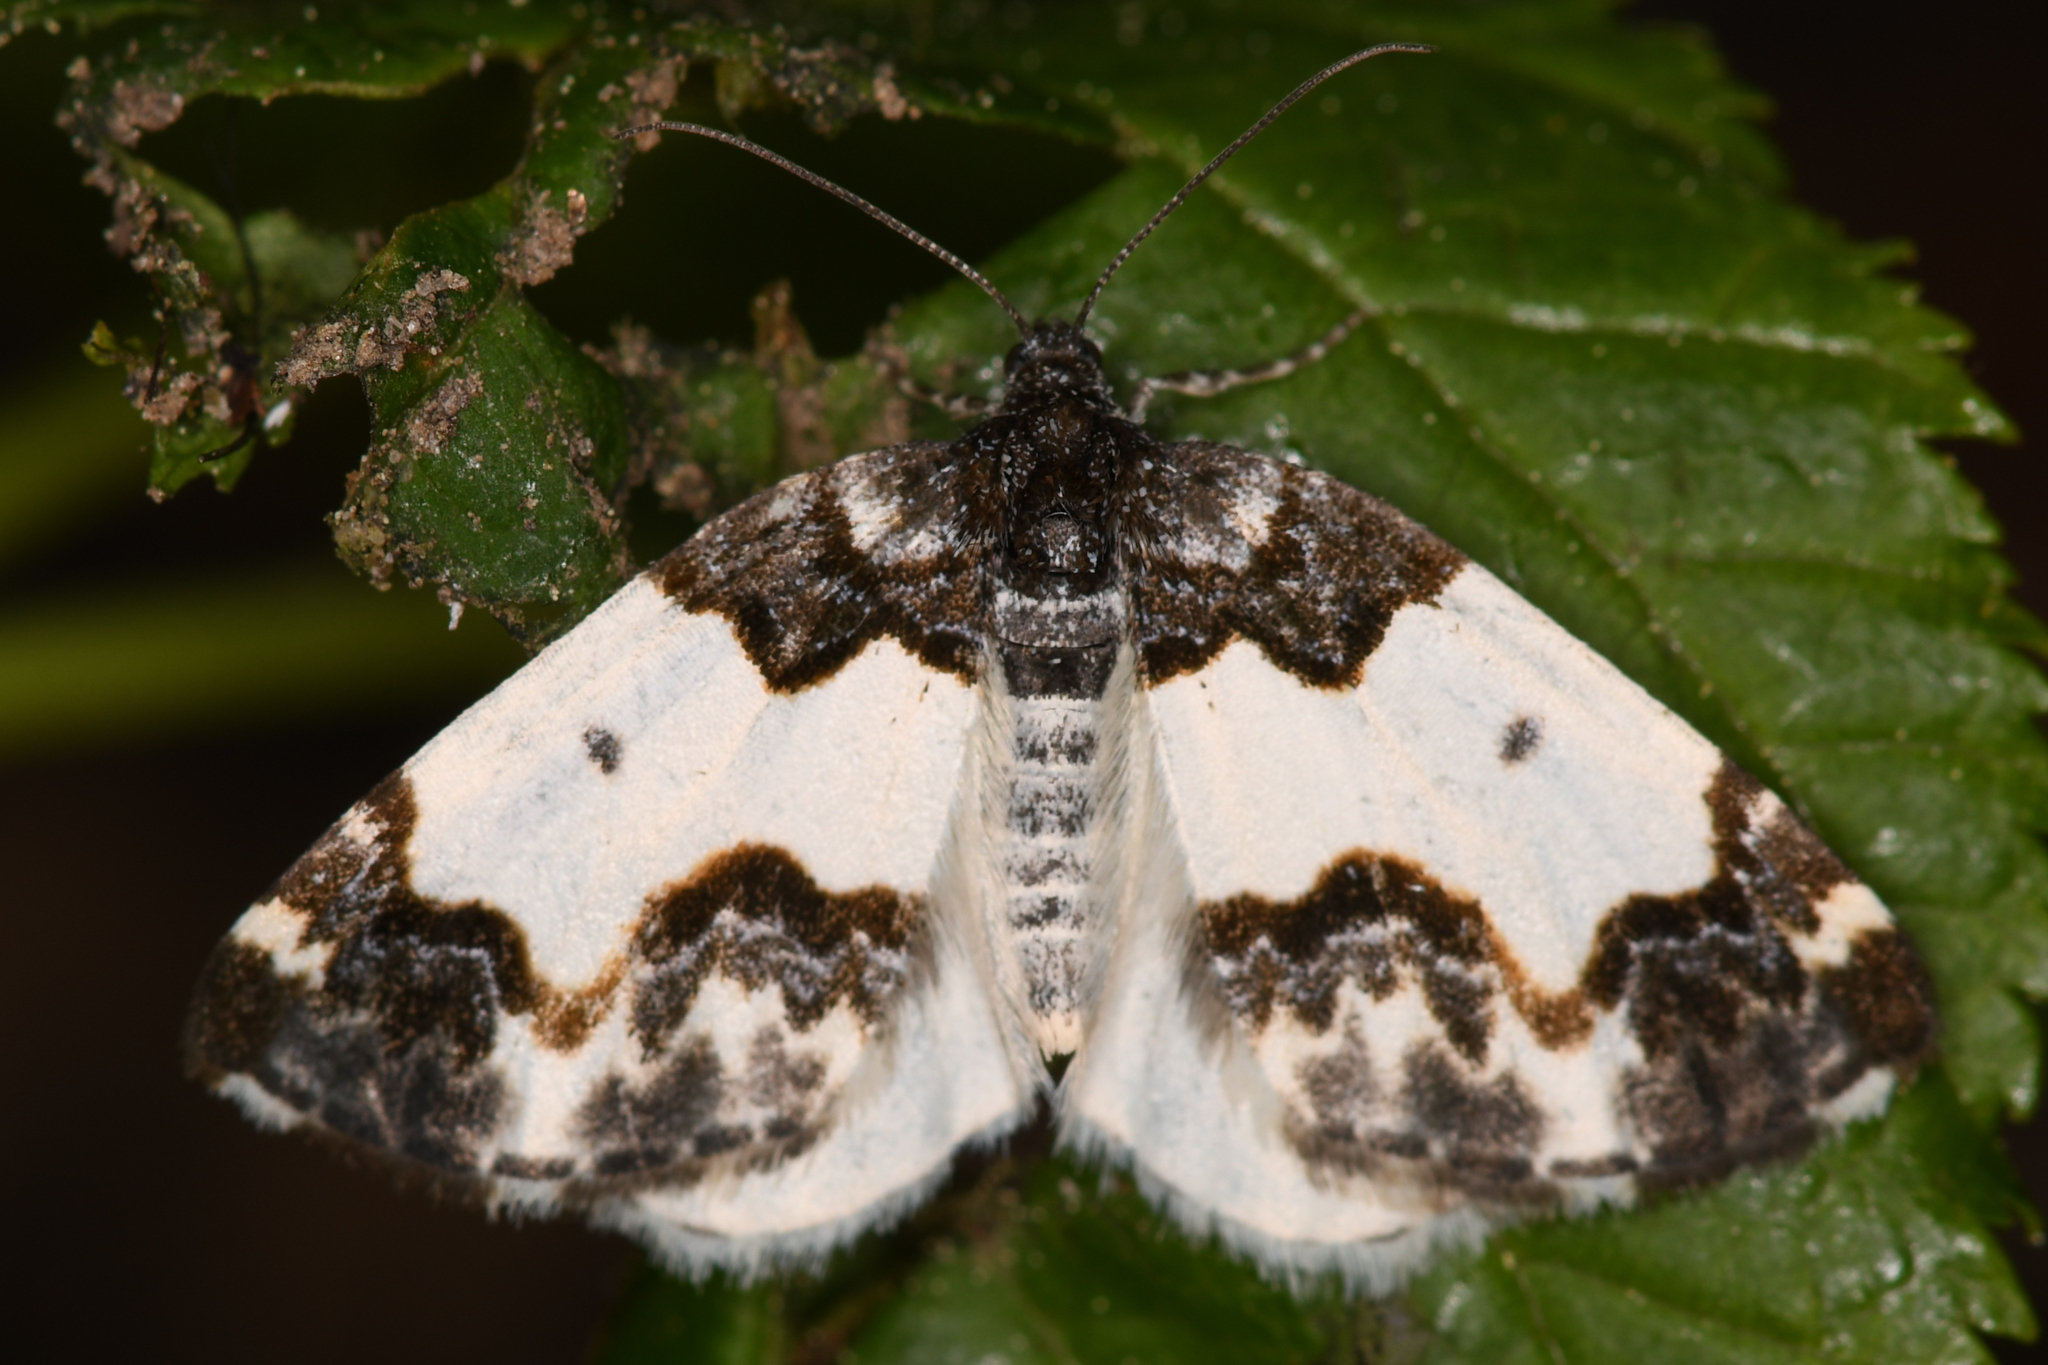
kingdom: Animalia
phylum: Arthropoda
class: Insecta
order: Lepidoptera
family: Geometridae
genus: Mesoleuca
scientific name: Mesoleuca gratulata
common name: Half-white carpet moth
